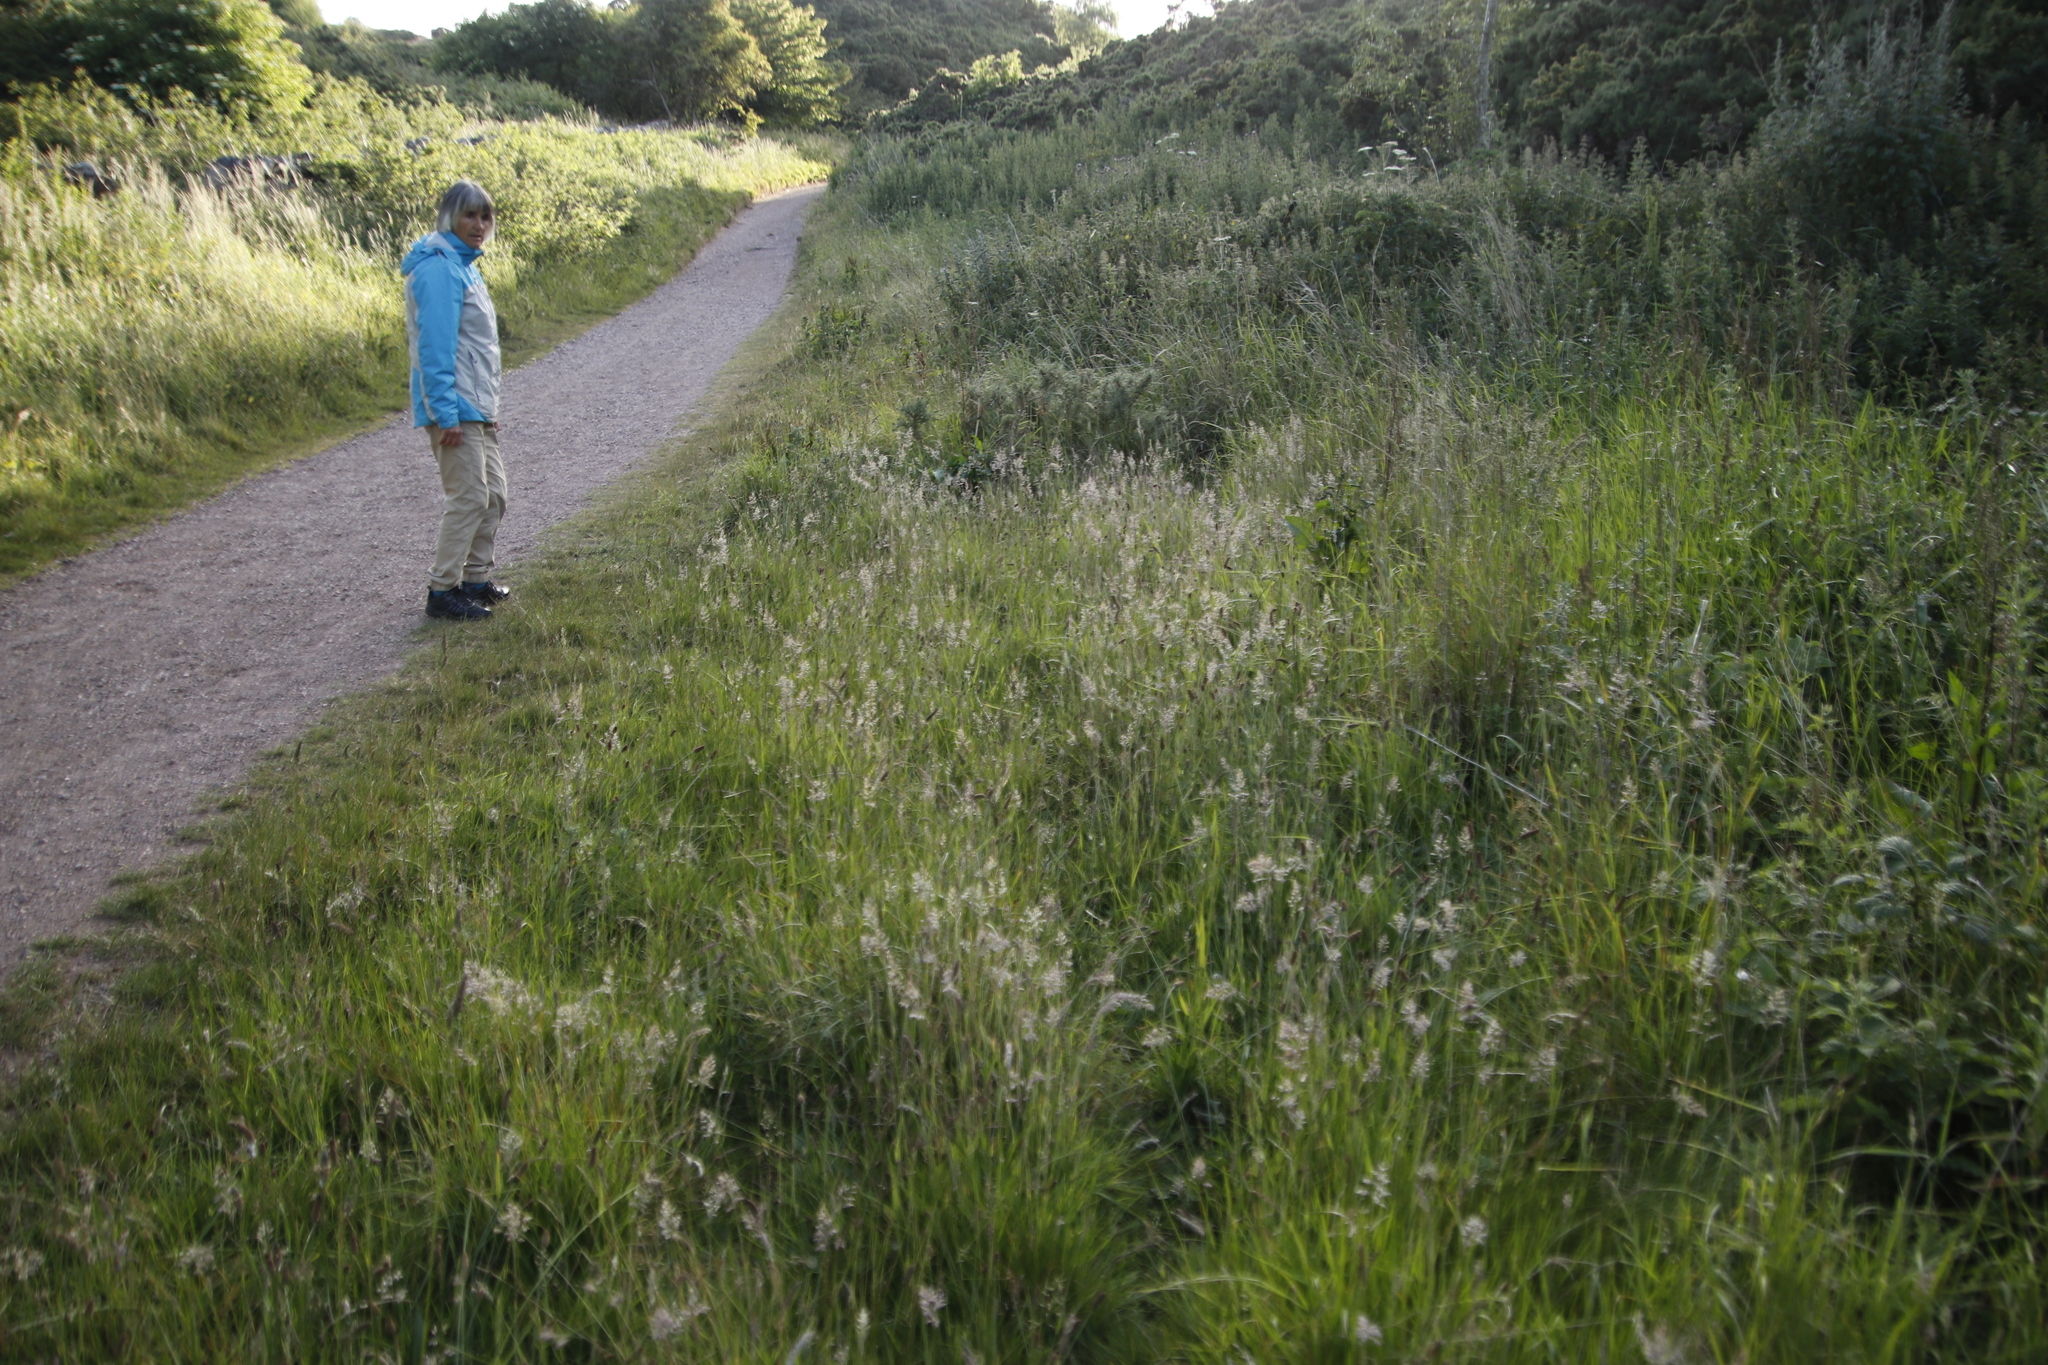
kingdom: Plantae
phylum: Tracheophyta
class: Liliopsida
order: Poales
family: Poaceae
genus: Dactylis
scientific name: Dactylis glomerata
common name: Orchardgrass
